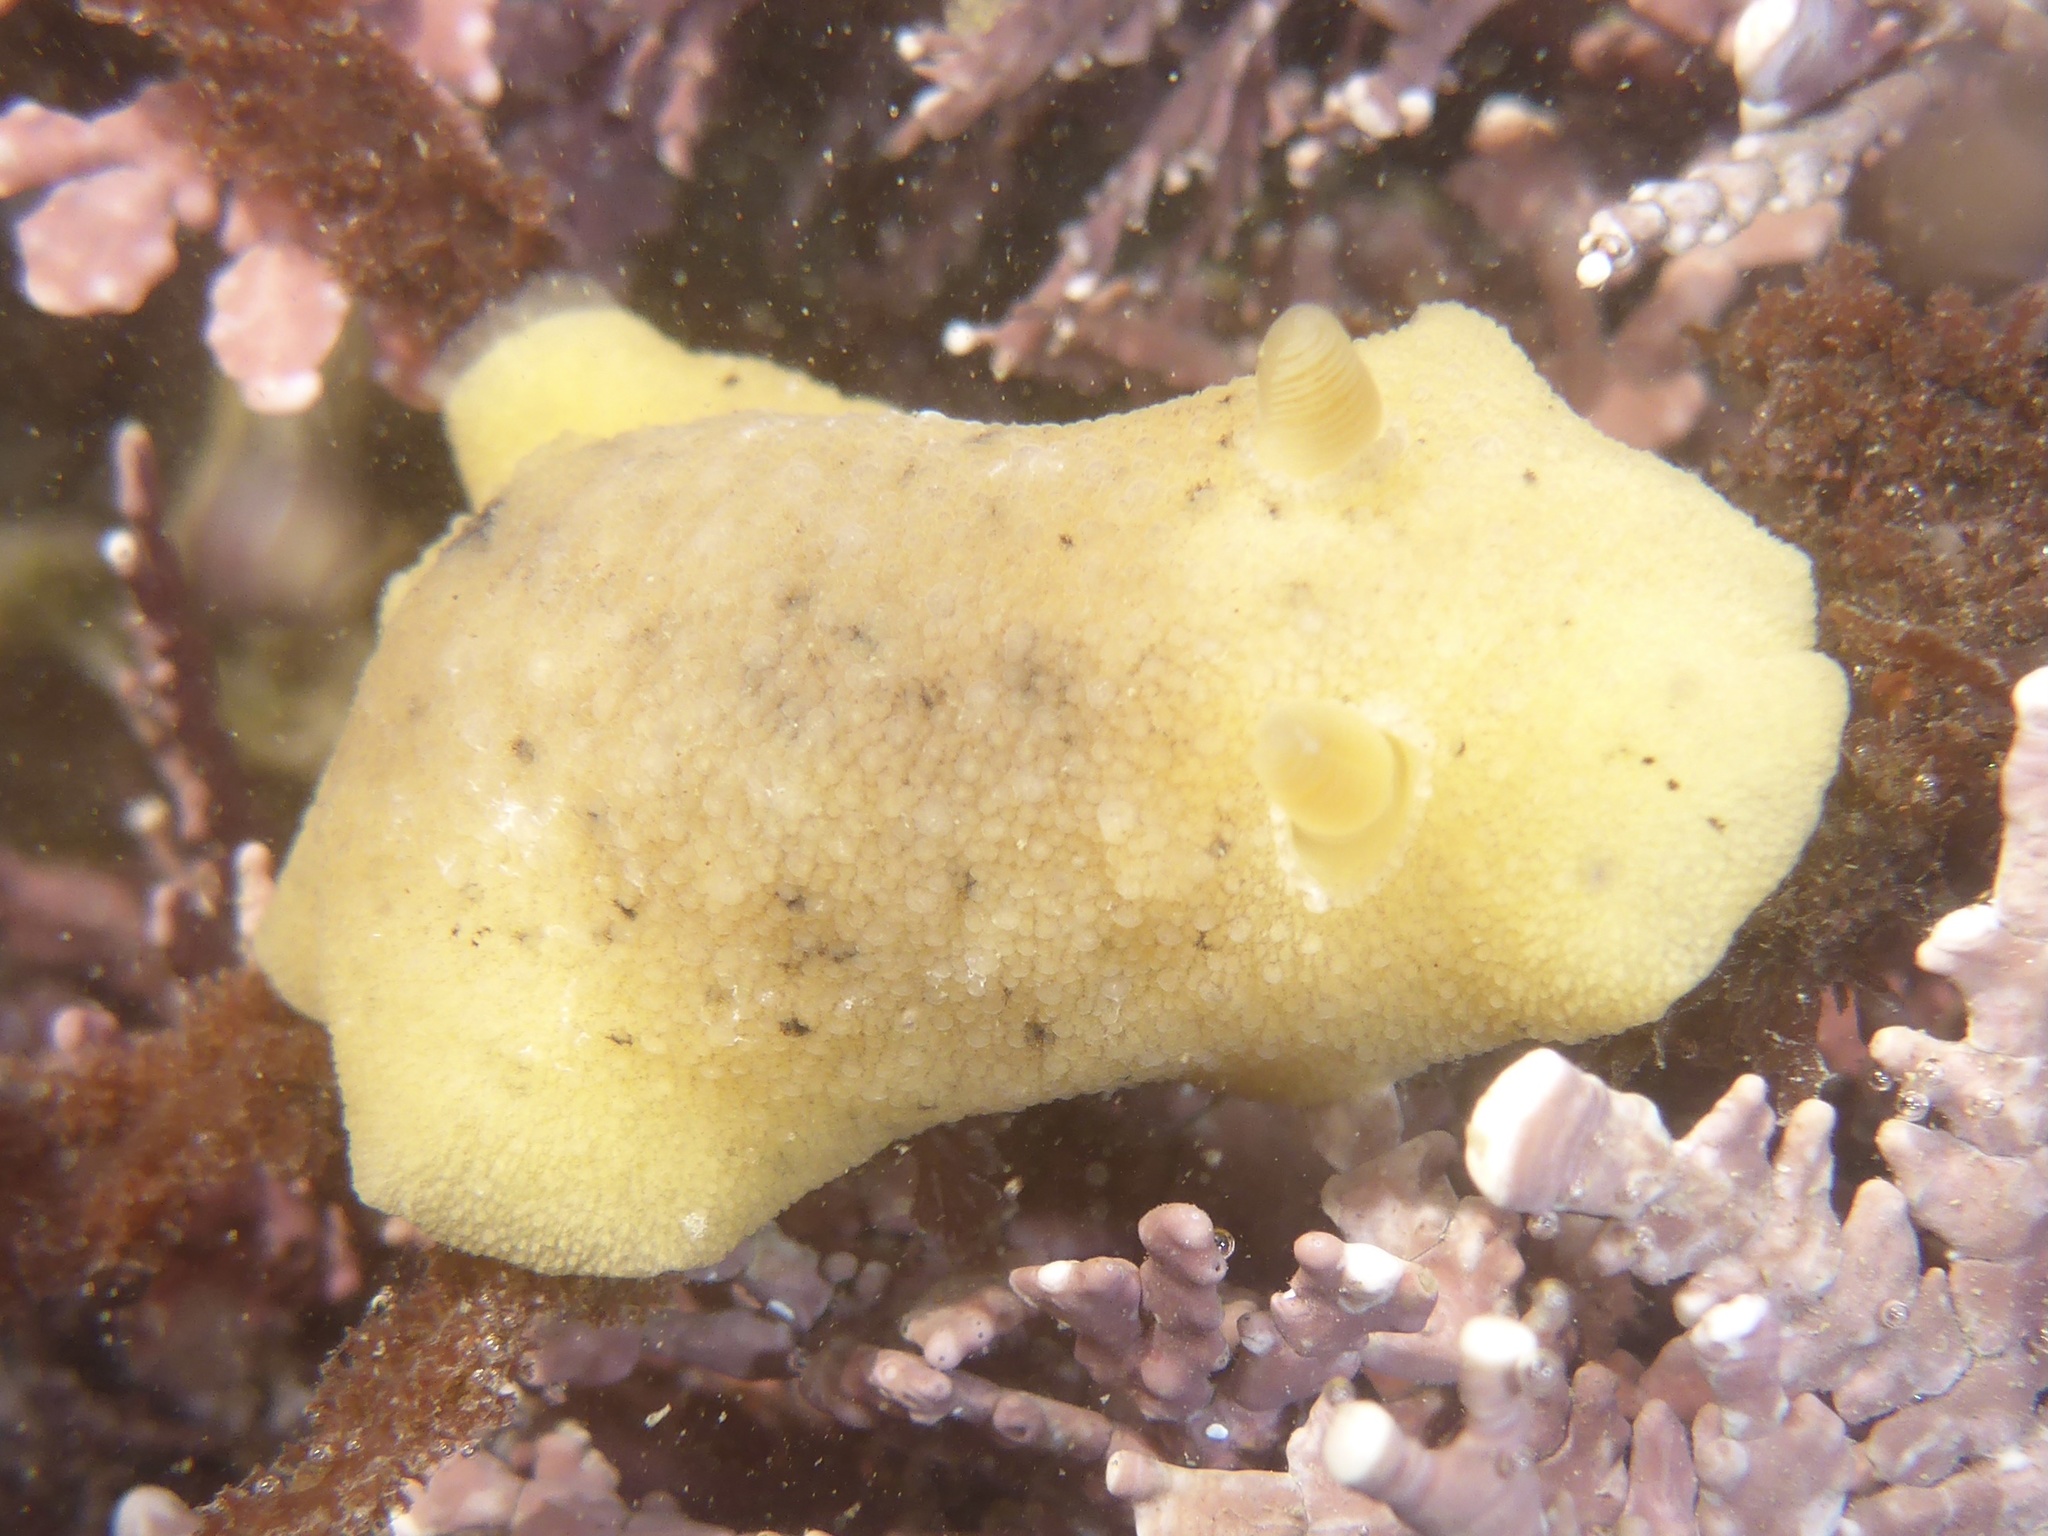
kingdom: Animalia
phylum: Mollusca
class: Gastropoda
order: Nudibranchia
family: Discodorididae
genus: Geitodoris
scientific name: Geitodoris heathi
